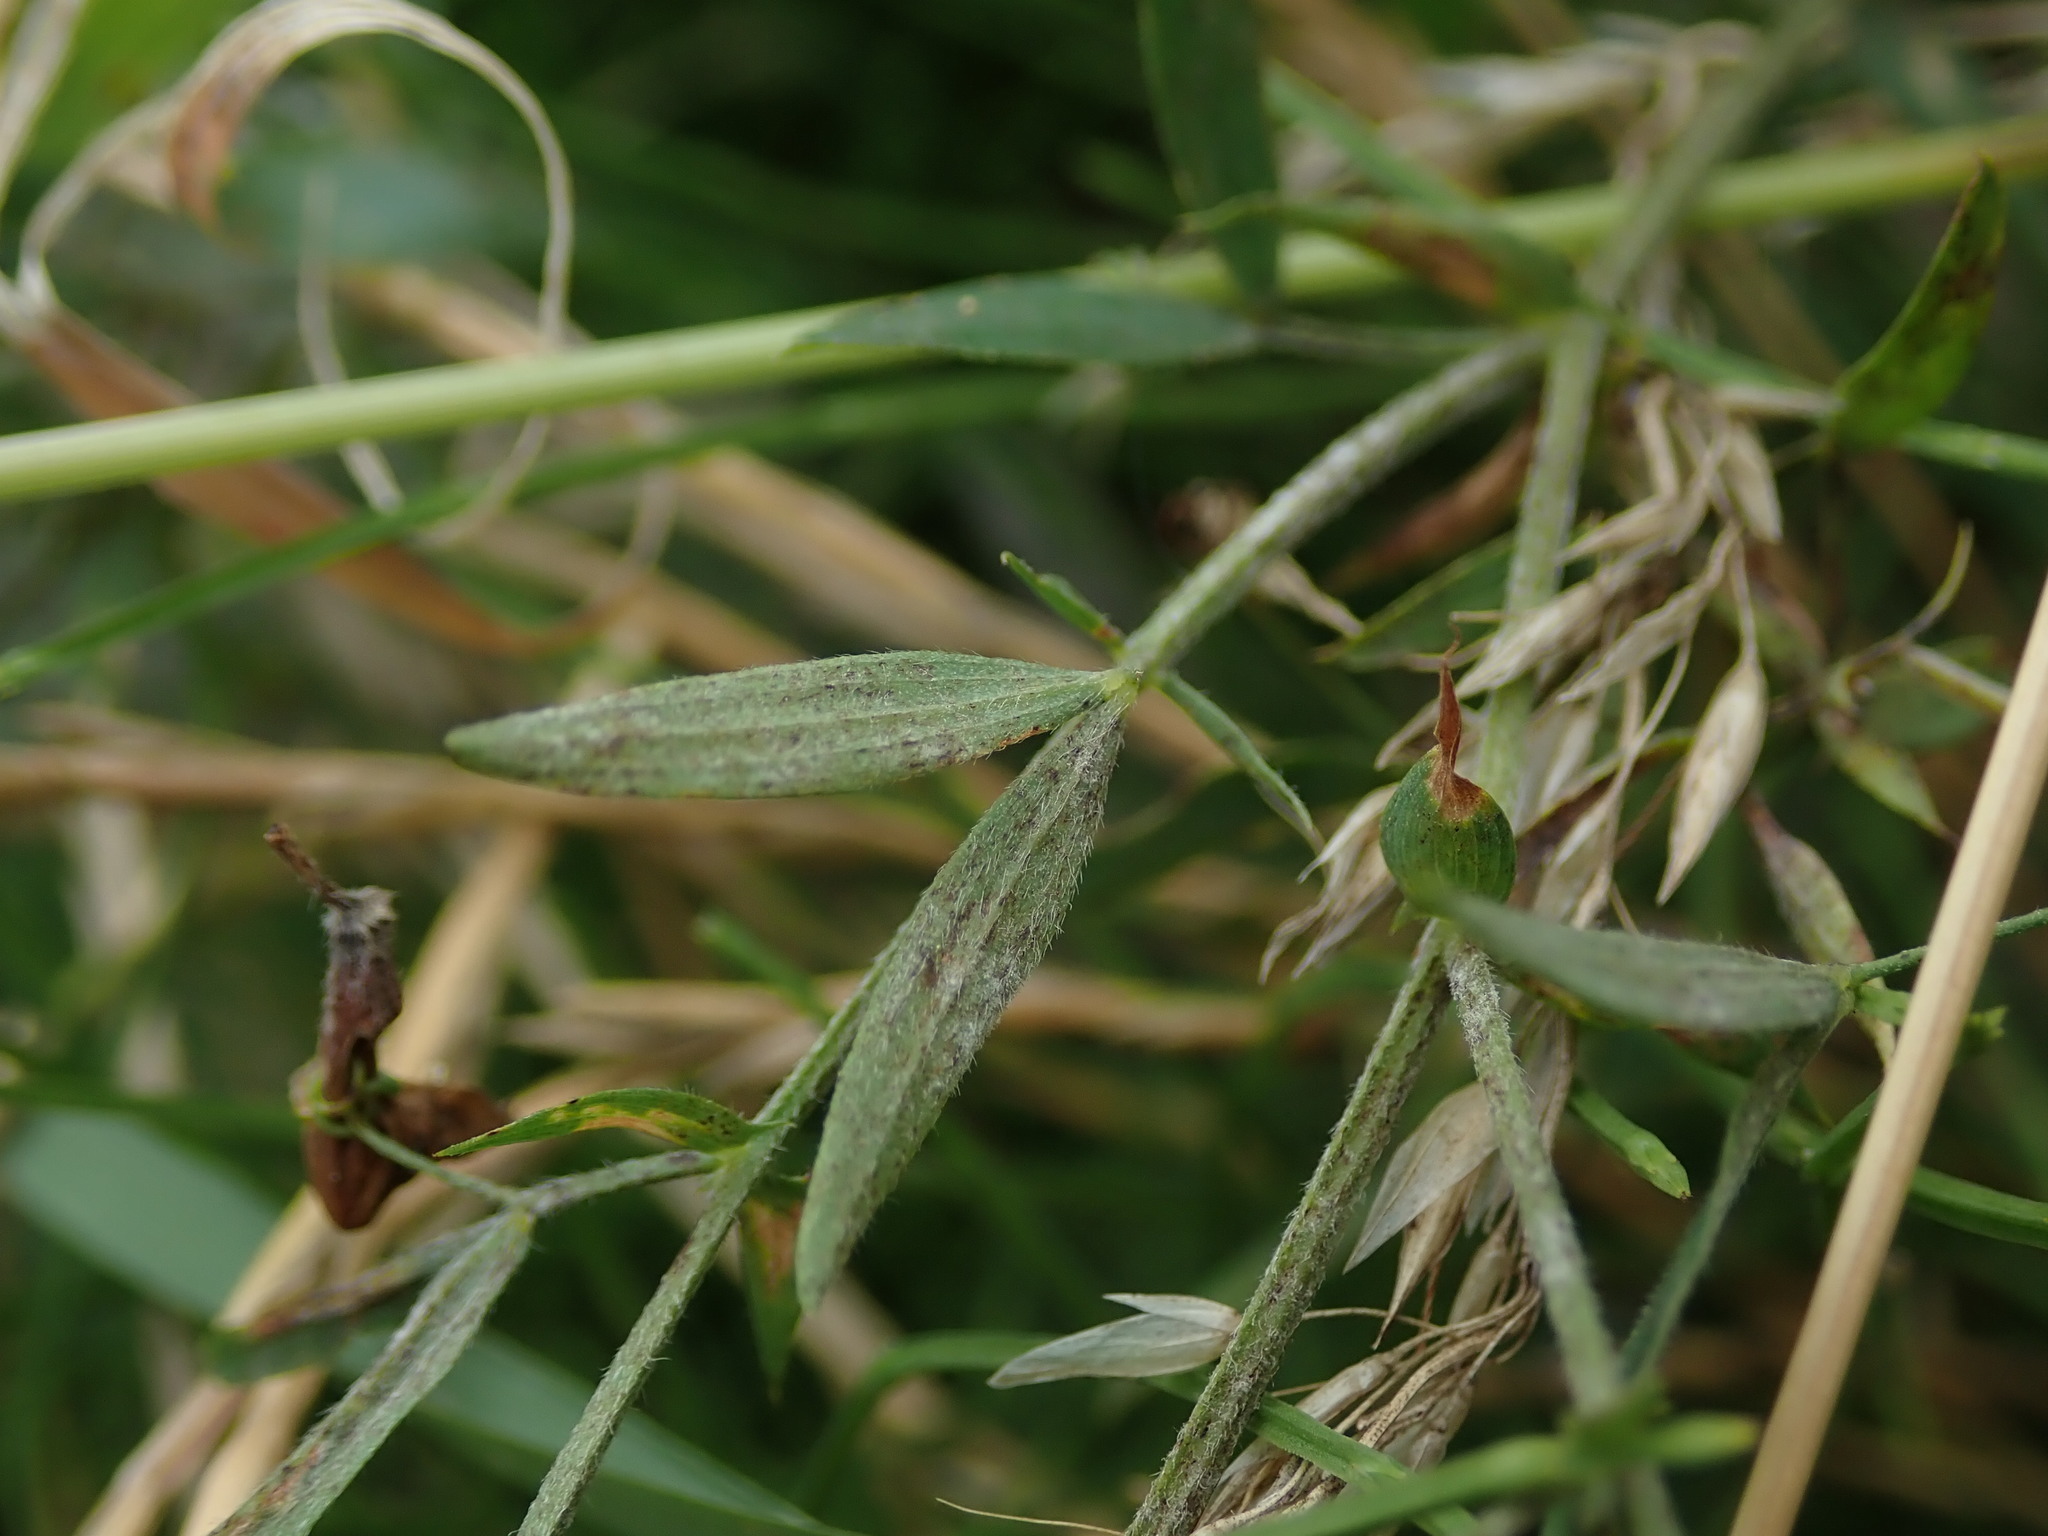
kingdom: Plantae
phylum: Tracheophyta
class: Magnoliopsida
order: Fabales
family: Fabaceae
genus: Lathyrus
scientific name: Lathyrus pratensis
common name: Meadow vetchling
